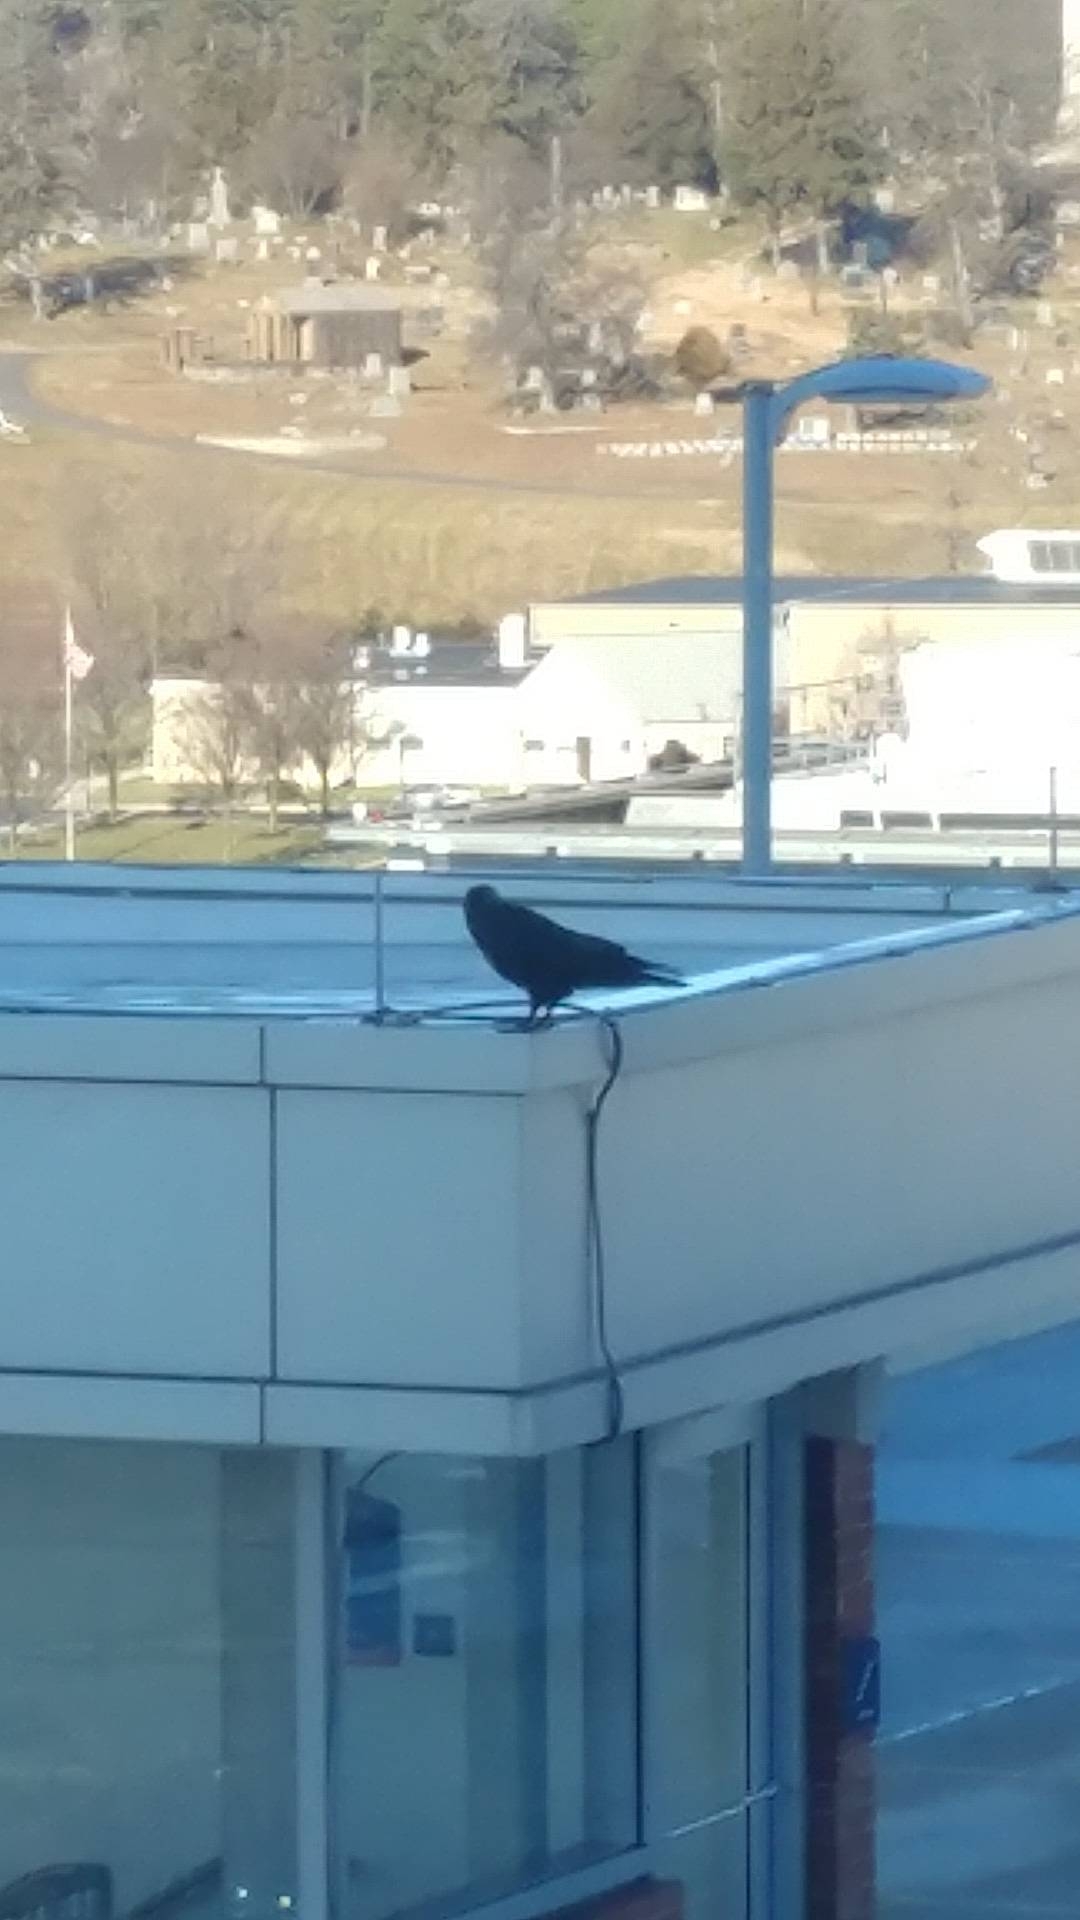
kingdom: Animalia
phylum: Chordata
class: Aves
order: Passeriformes
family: Corvidae
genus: Corvus
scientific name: Corvus corax
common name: Common raven
